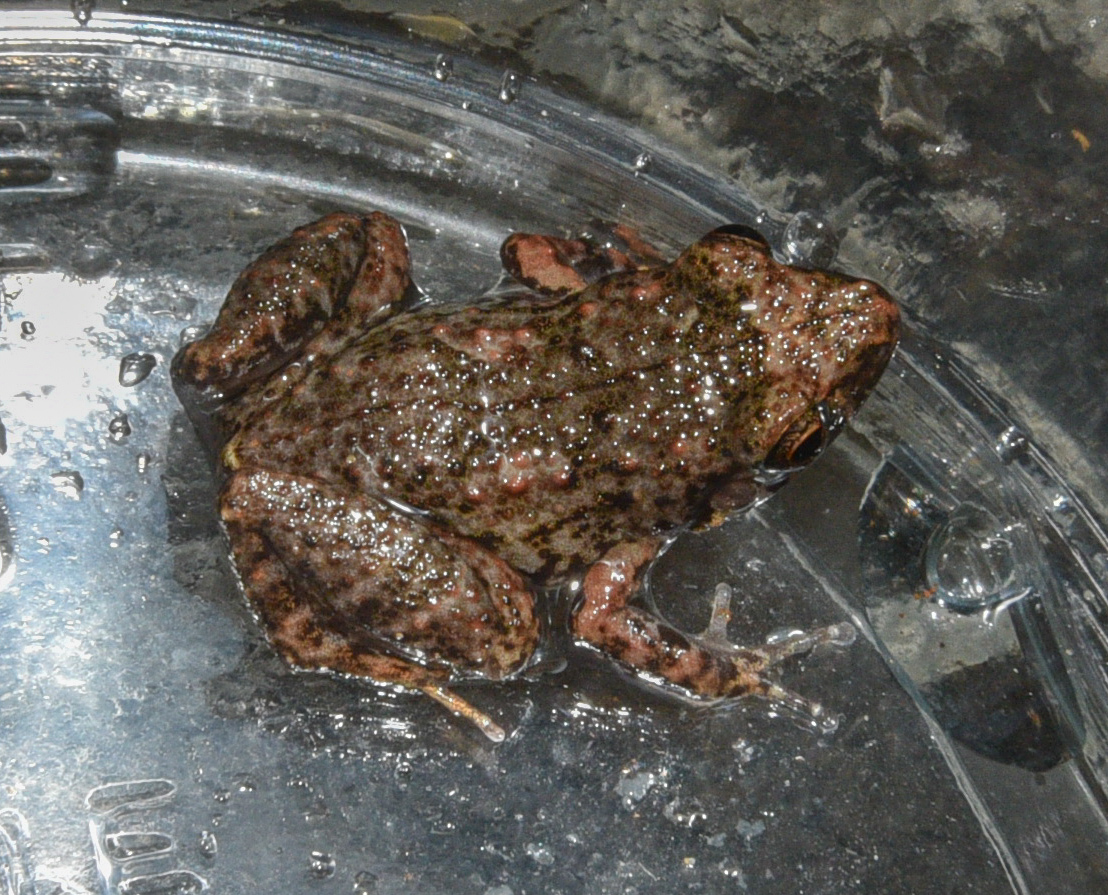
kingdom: Animalia
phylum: Chordata
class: Amphibia
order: Anura
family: Eleutherodactylidae
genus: Eleutherodactylus
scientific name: Eleutherodactylus planirostris
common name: Greenhouse frog
